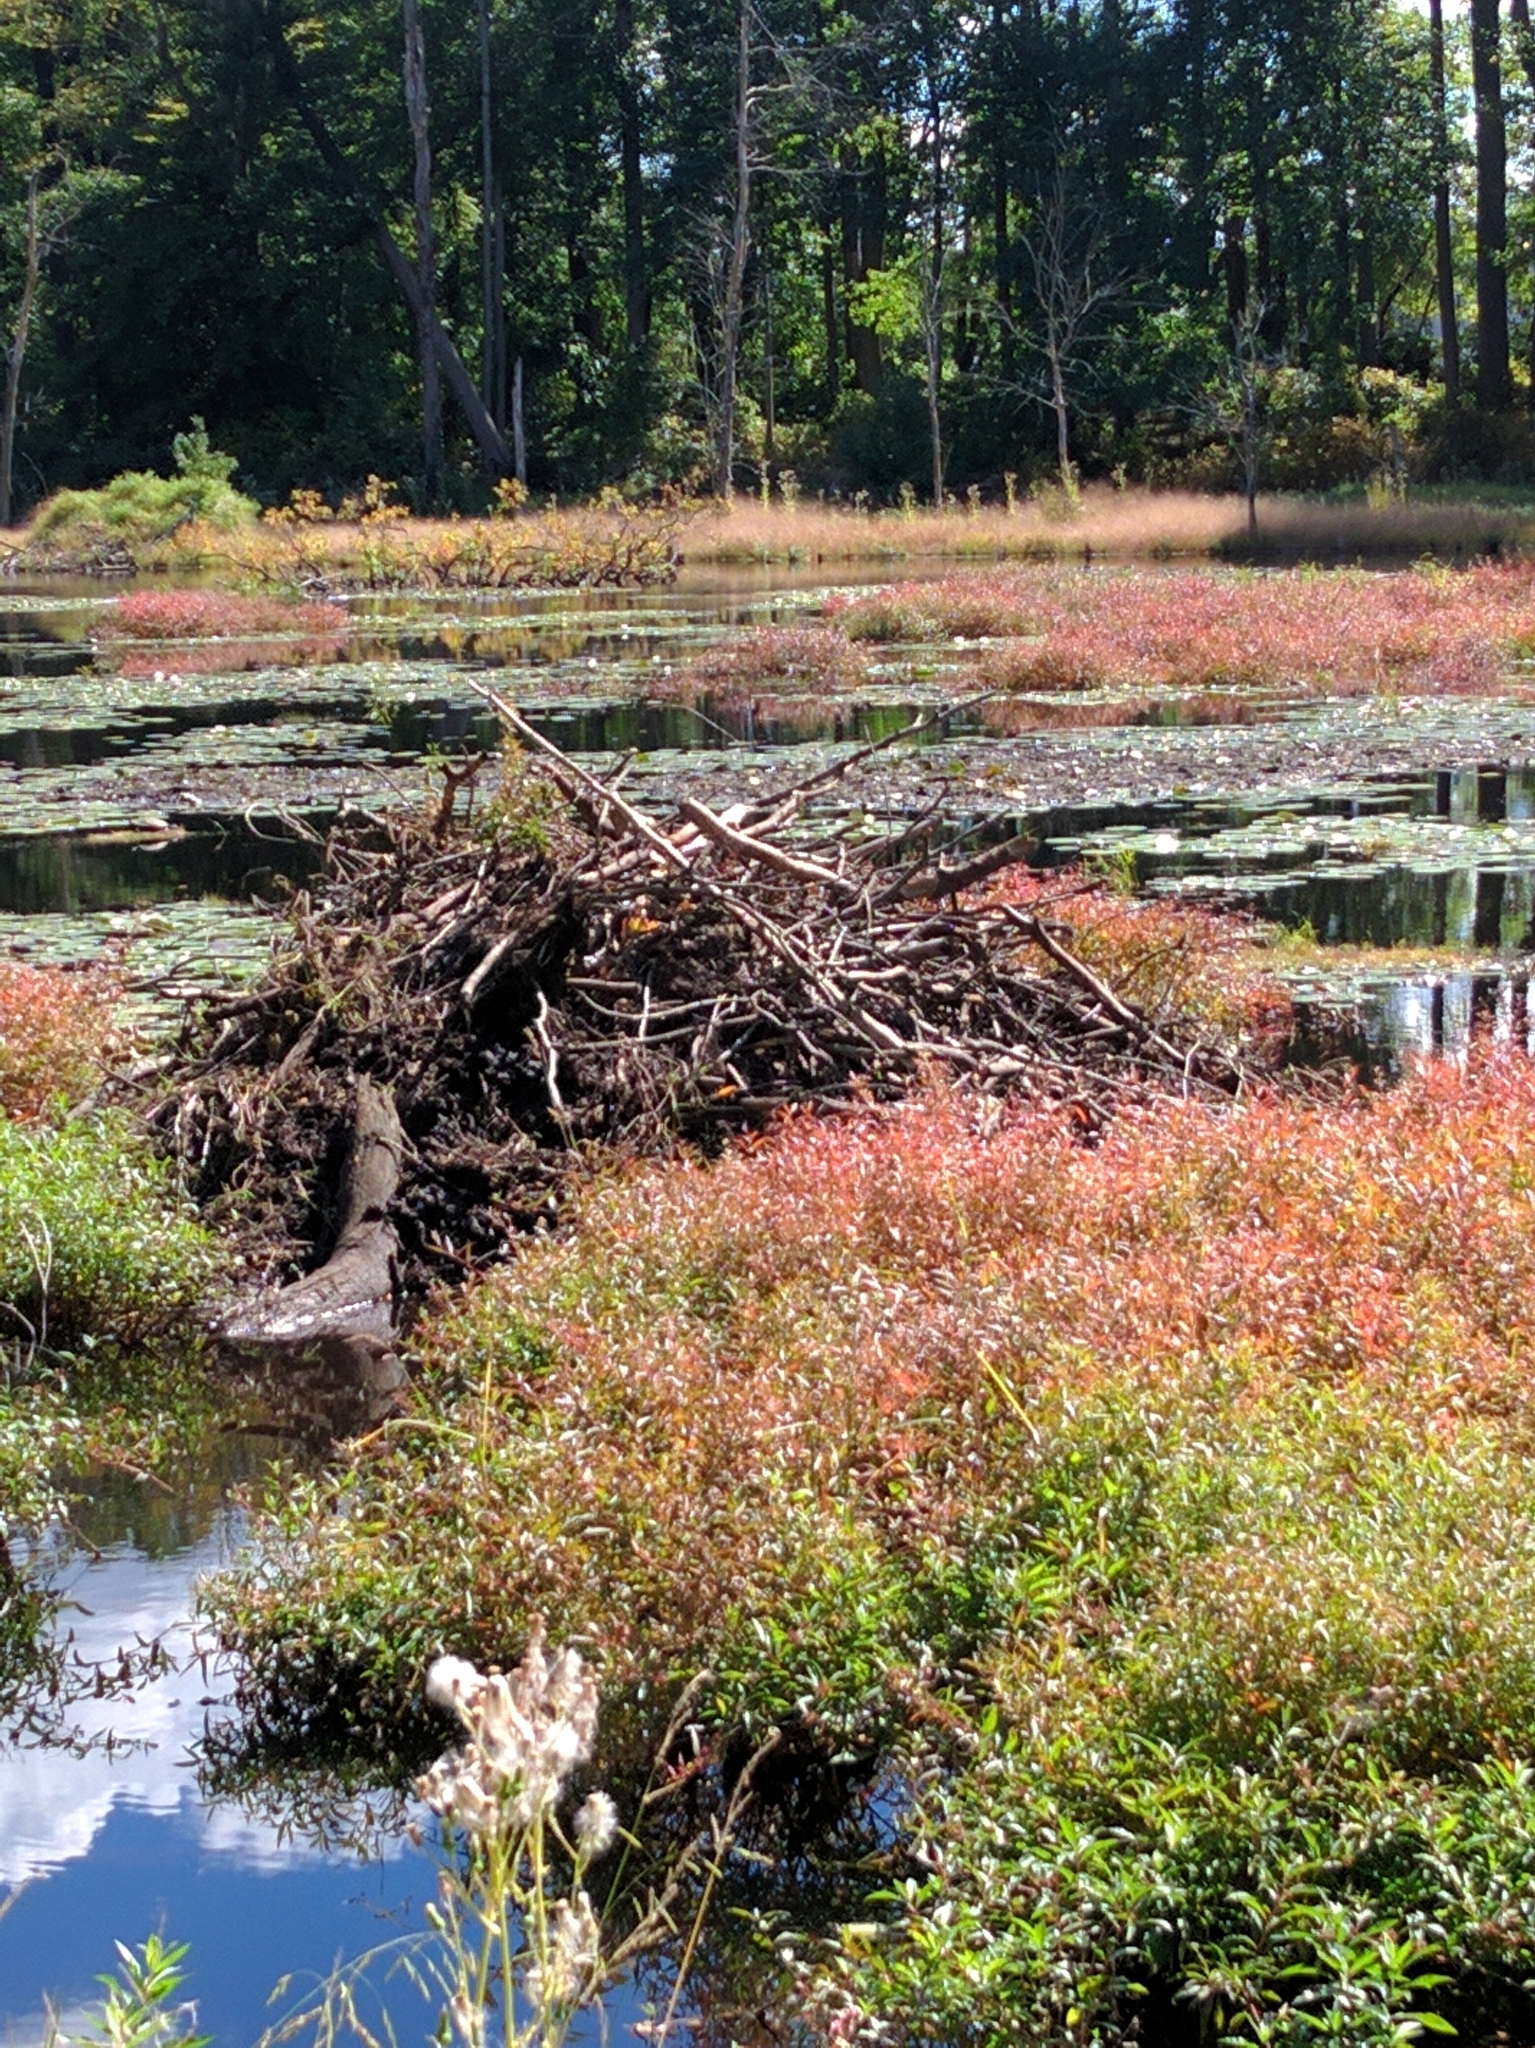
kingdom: Animalia
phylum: Chordata
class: Mammalia
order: Rodentia
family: Castoridae
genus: Castor
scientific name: Castor canadensis
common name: American beaver
